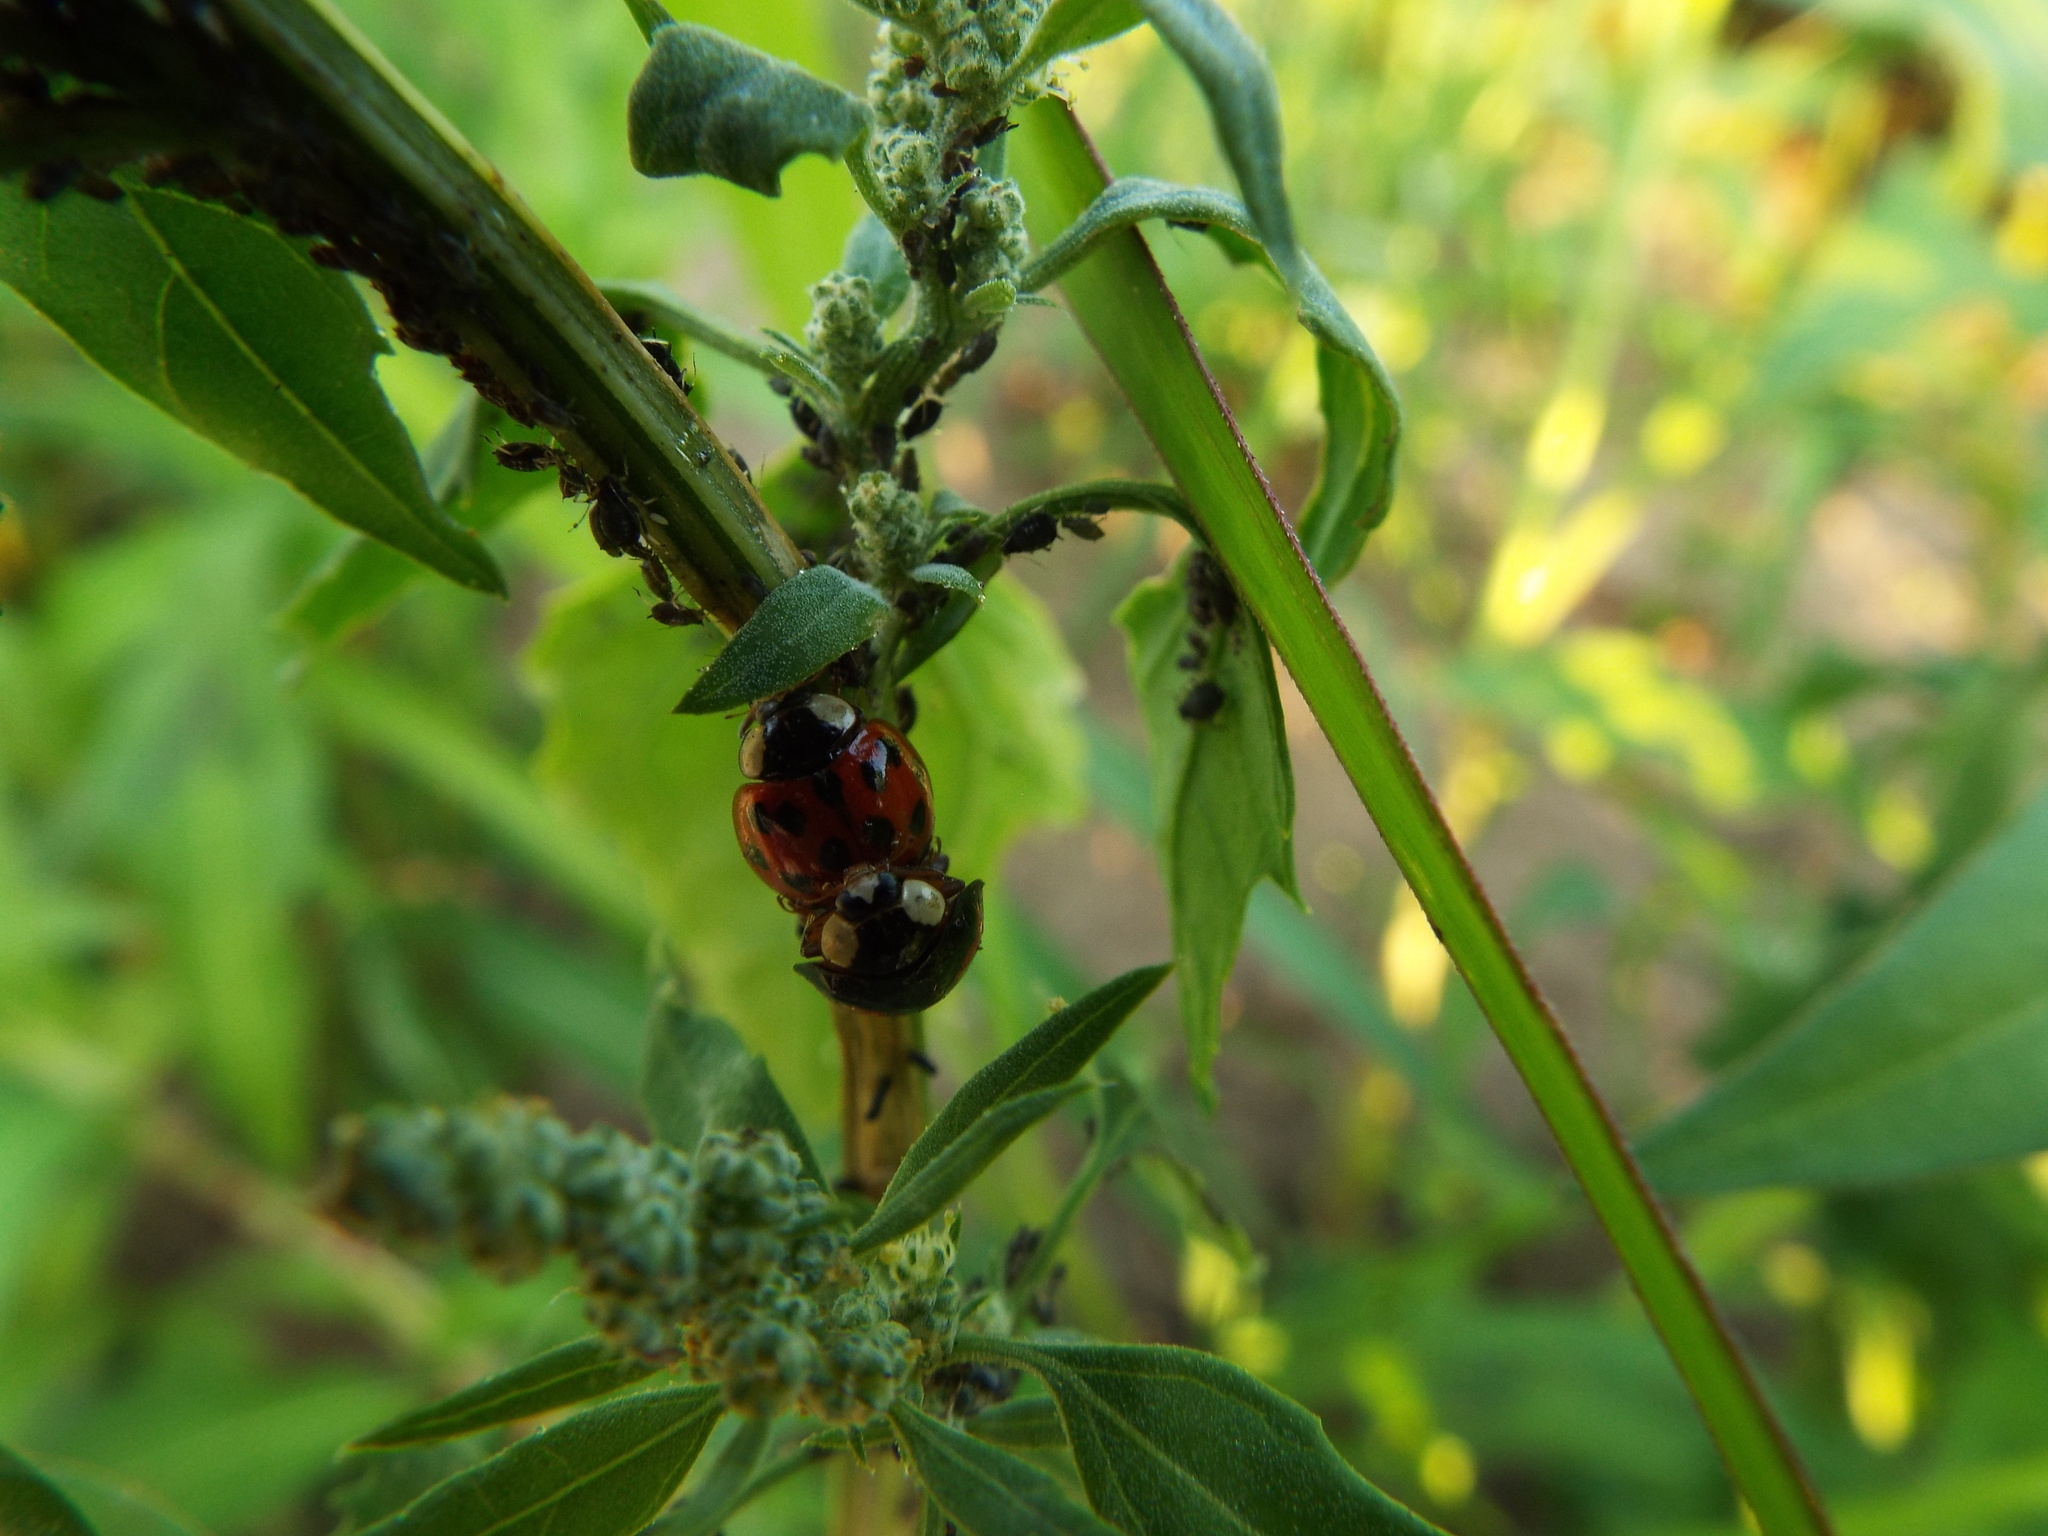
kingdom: Animalia
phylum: Arthropoda
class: Insecta
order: Coleoptera
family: Coccinellidae
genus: Harmonia
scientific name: Harmonia axyridis
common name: Harlequin ladybird
